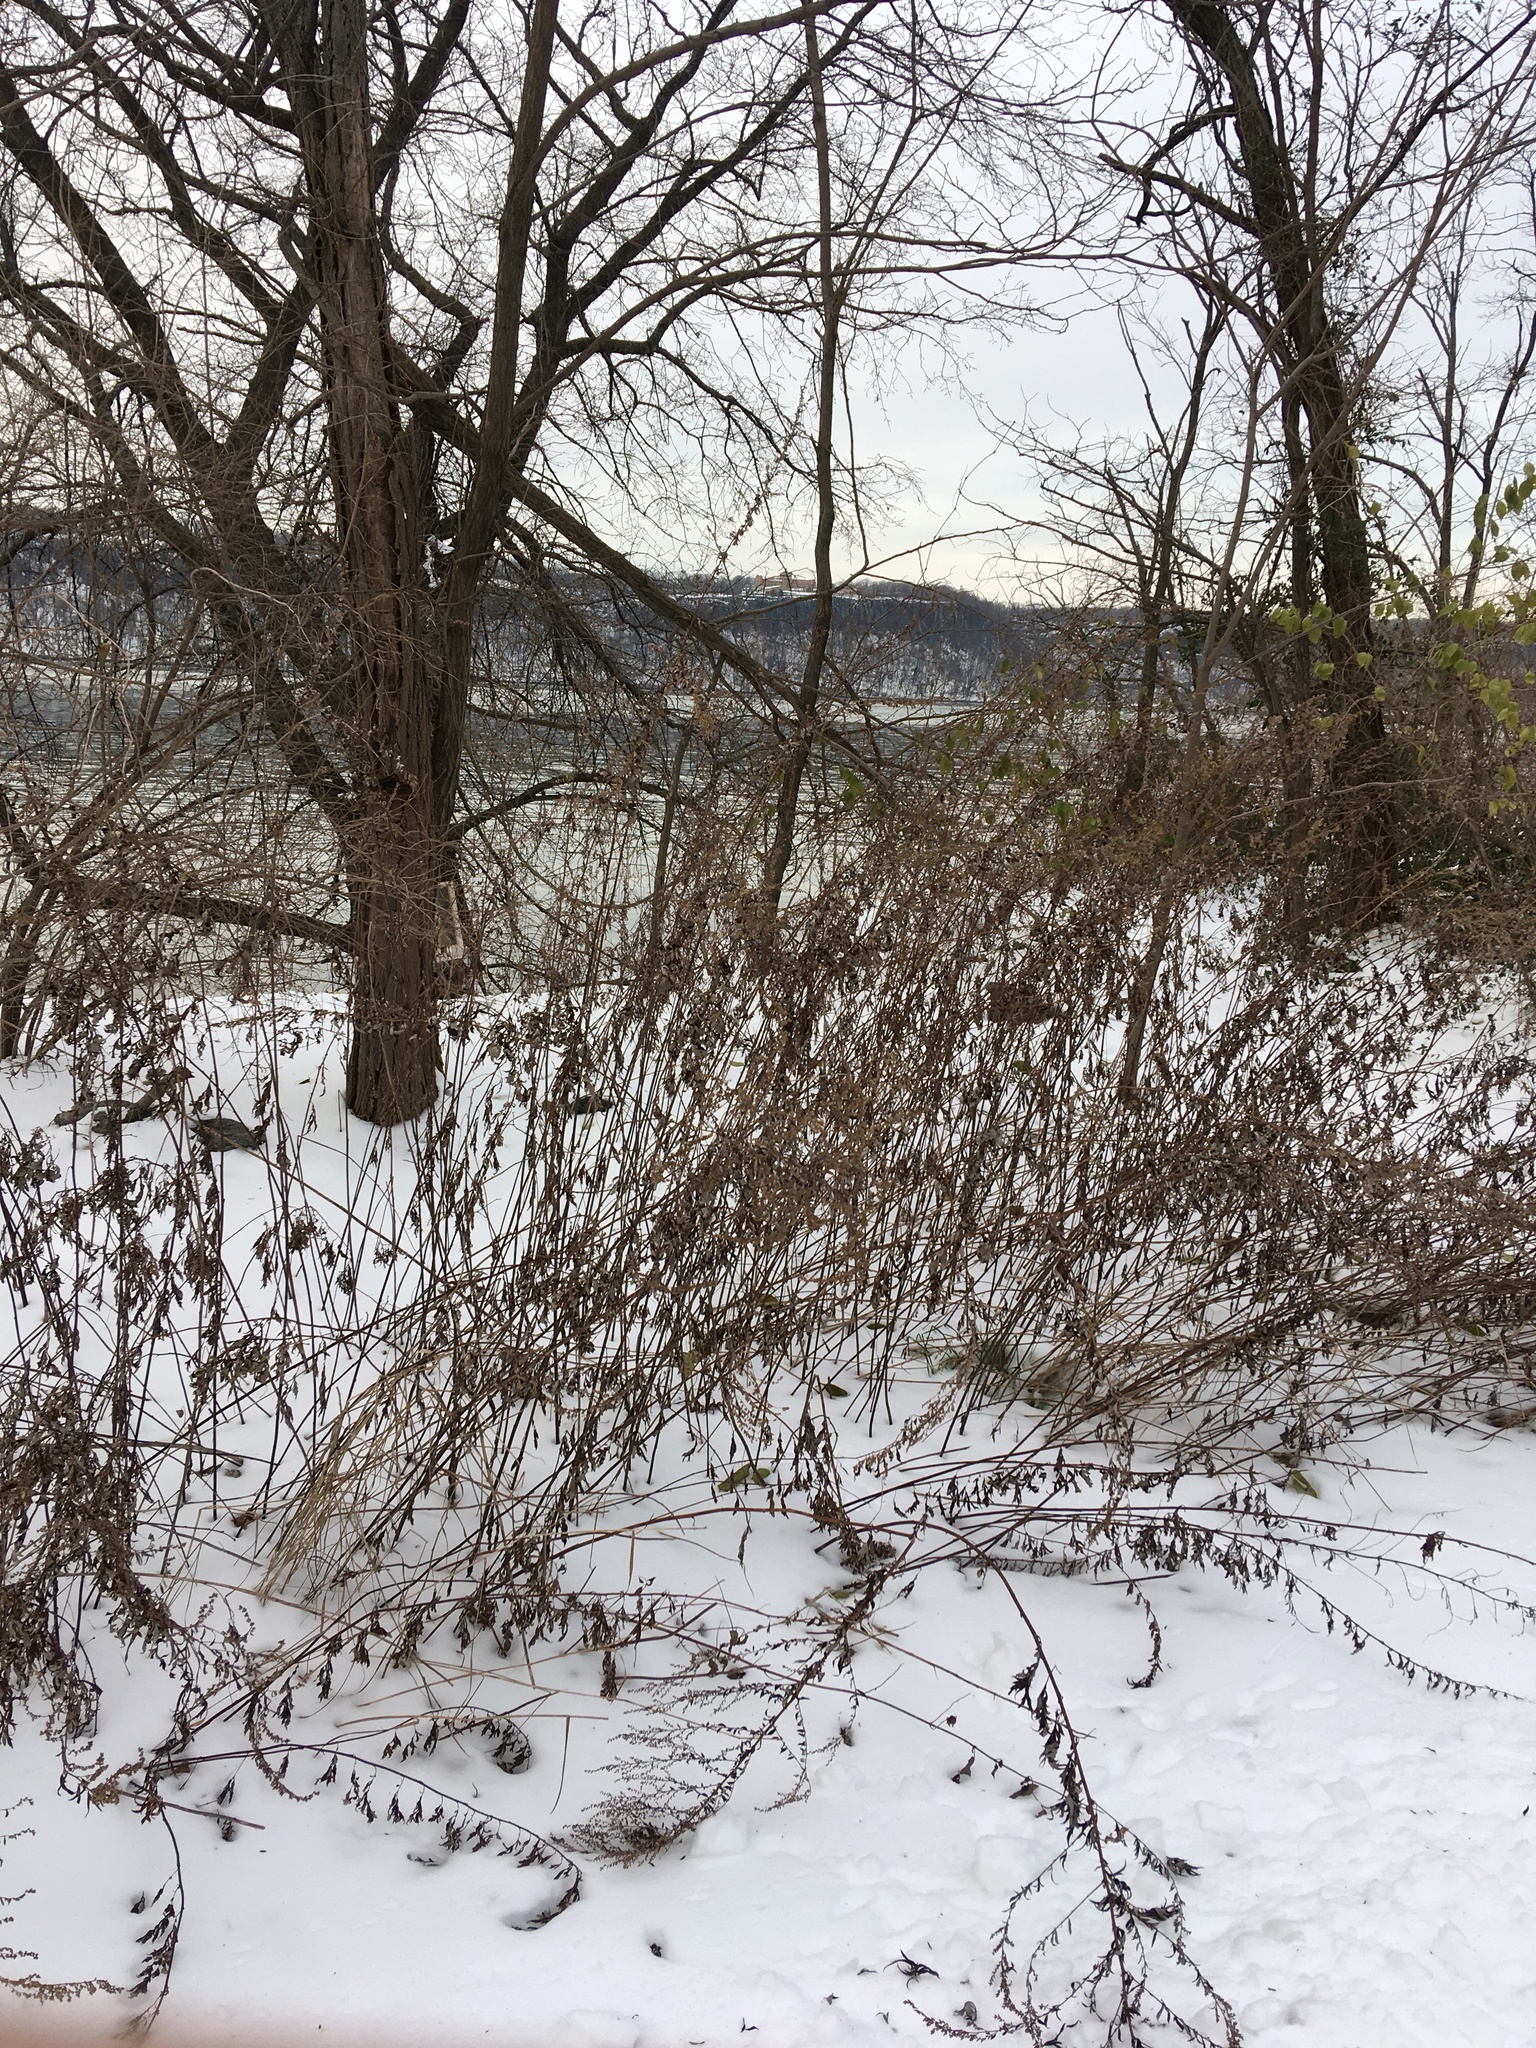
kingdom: Plantae
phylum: Tracheophyta
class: Magnoliopsida
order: Asterales
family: Asteraceae
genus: Artemisia
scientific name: Artemisia vulgaris
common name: Mugwort
